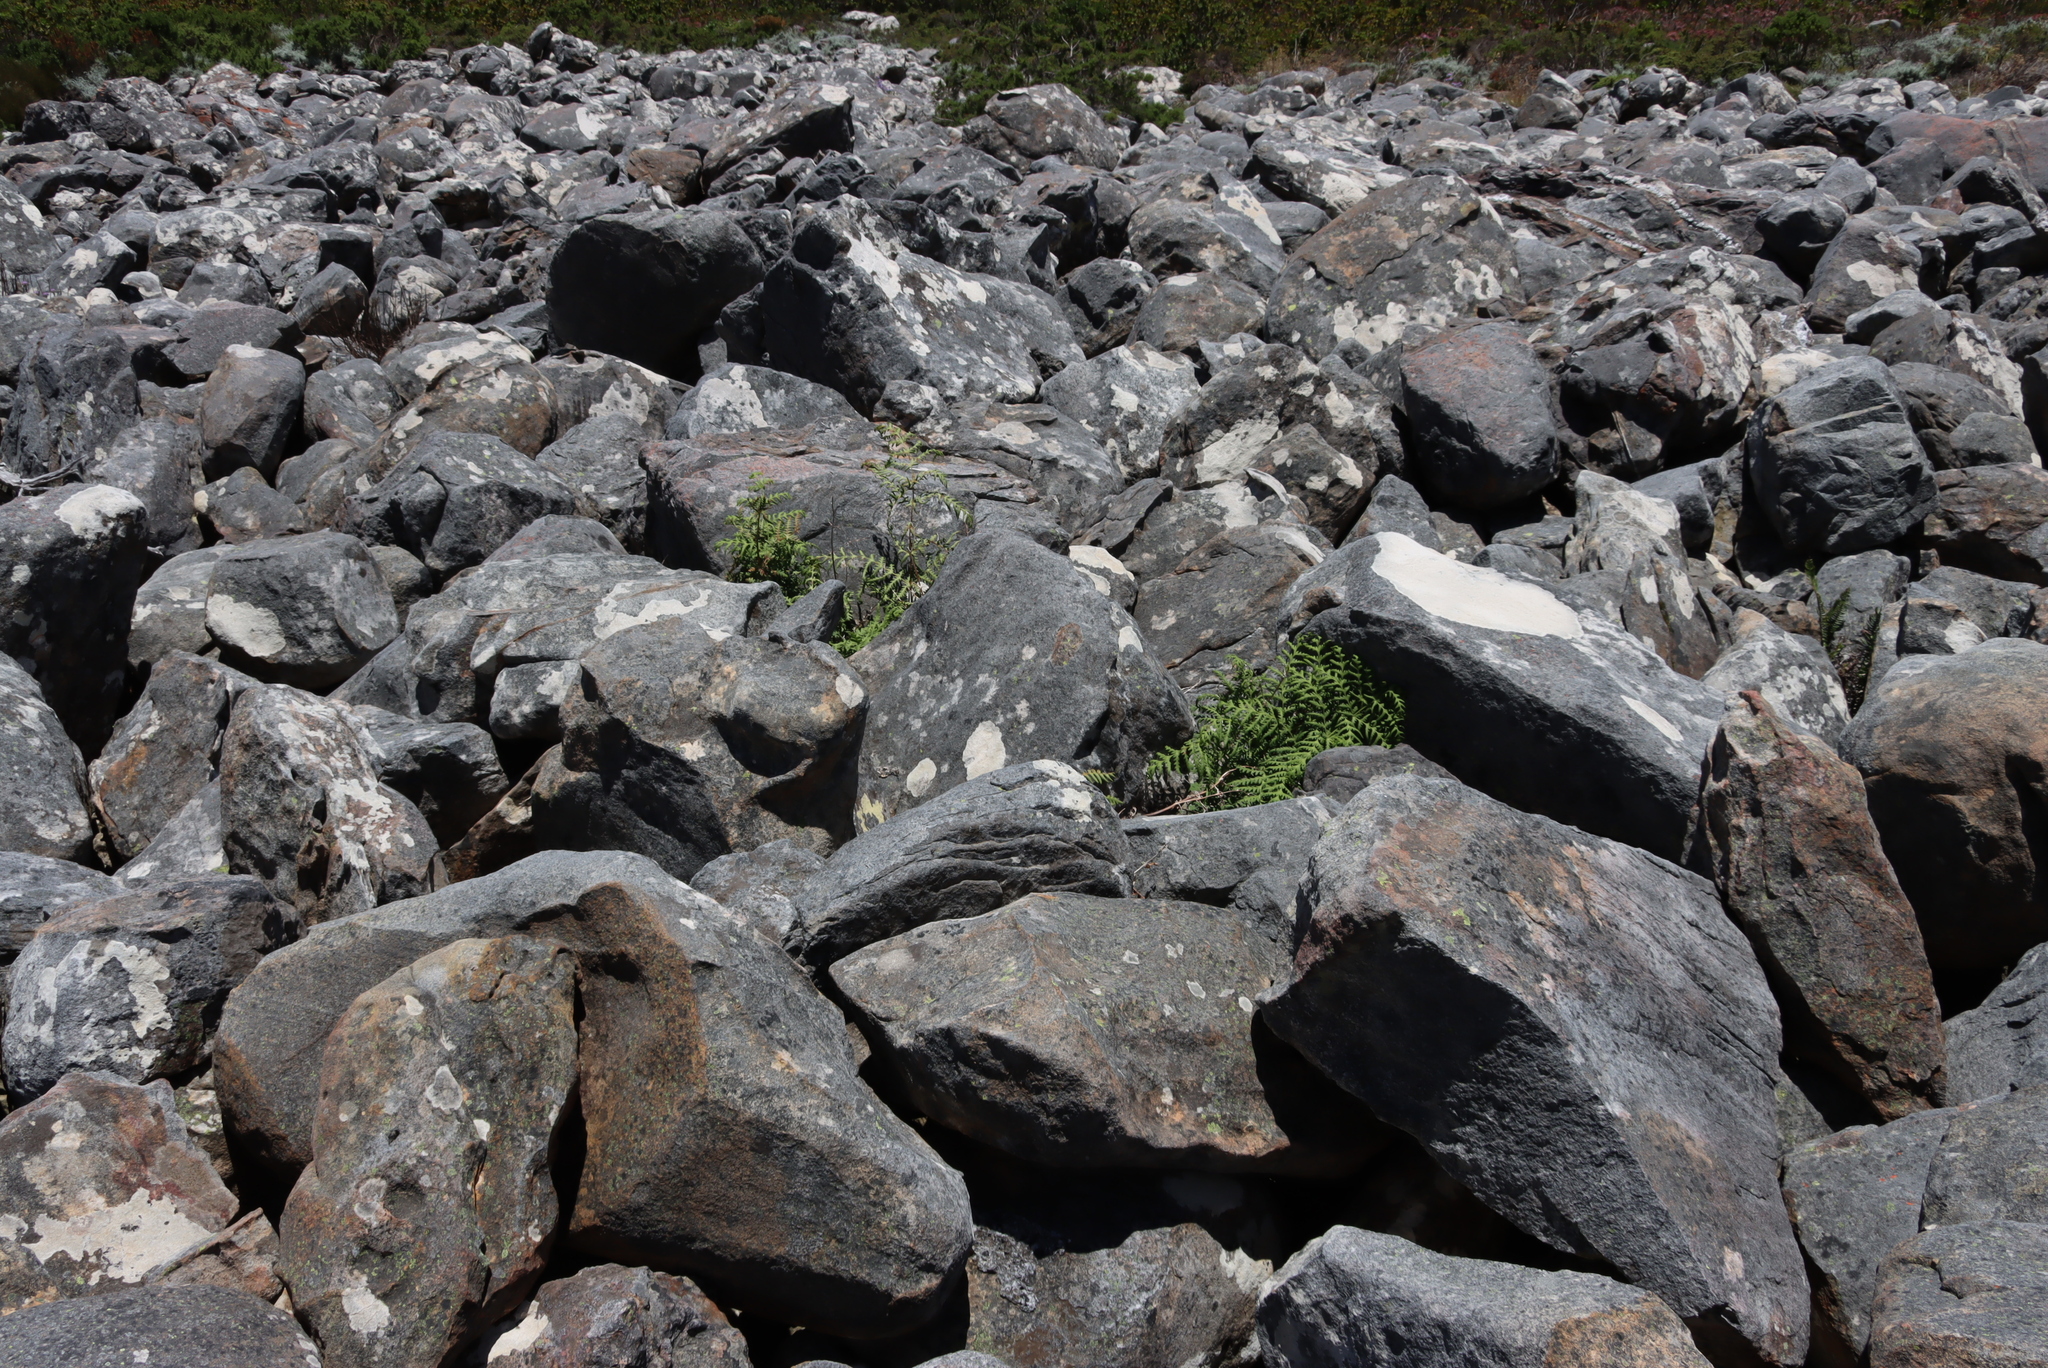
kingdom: Plantae
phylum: Tracheophyta
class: Polypodiopsida
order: Polypodiales
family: Dennstaedtiaceae
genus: Histiopteris
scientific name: Histiopteris incisa
